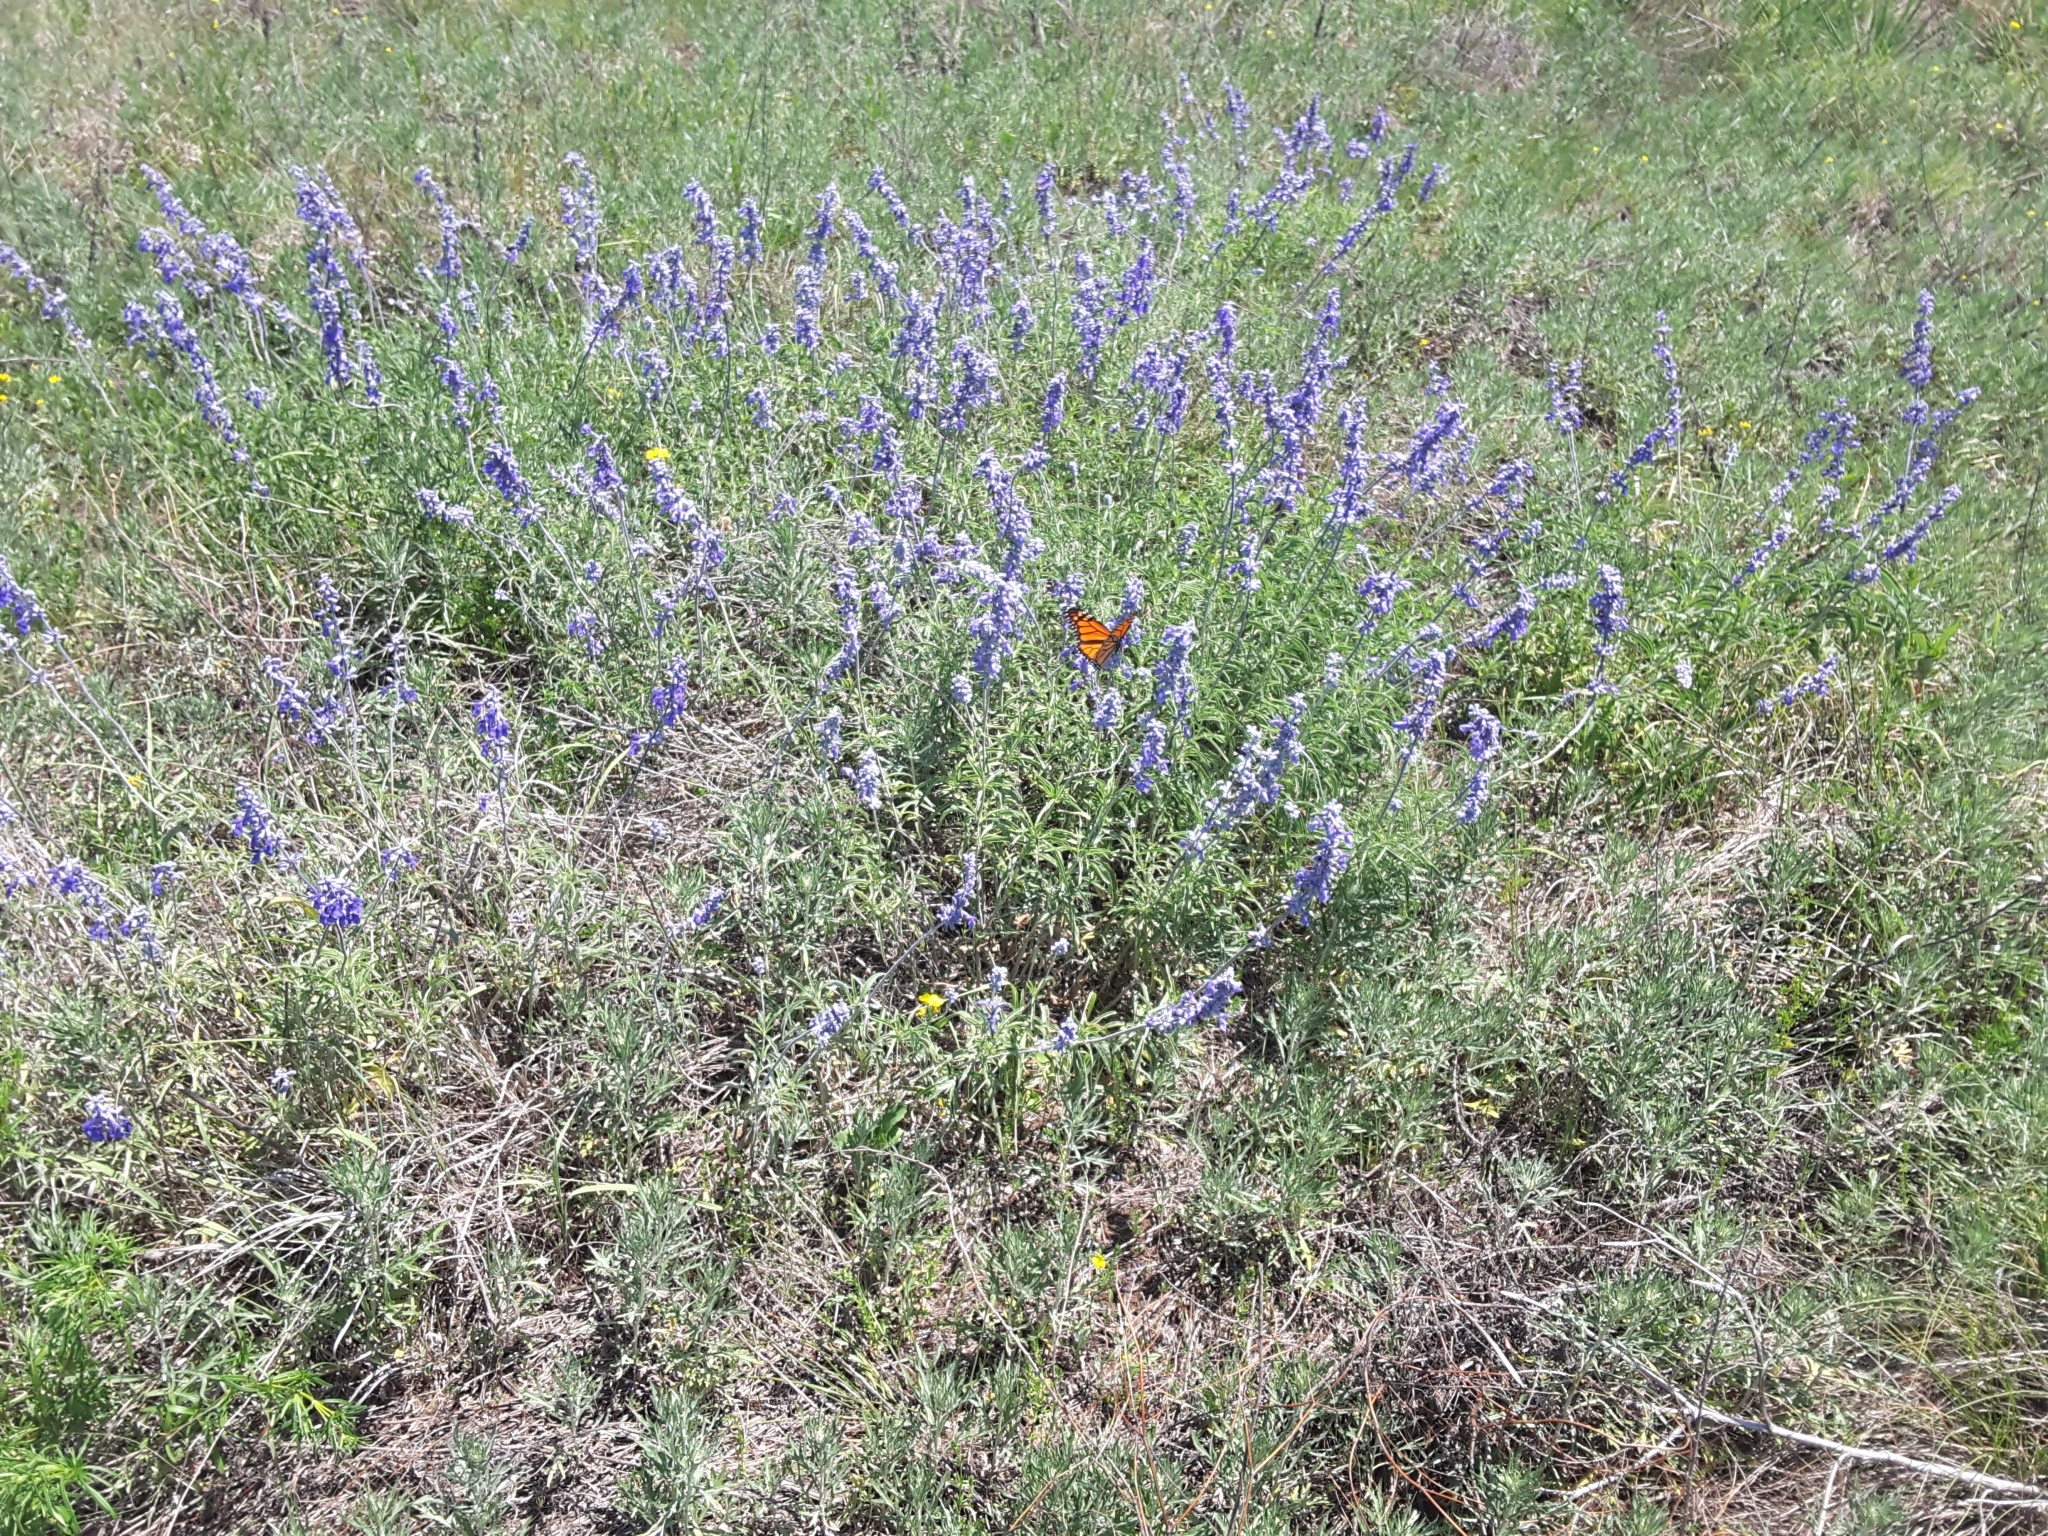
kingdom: Animalia
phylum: Arthropoda
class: Insecta
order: Lepidoptera
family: Nymphalidae
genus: Danaus
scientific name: Danaus plexippus
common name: Monarch
